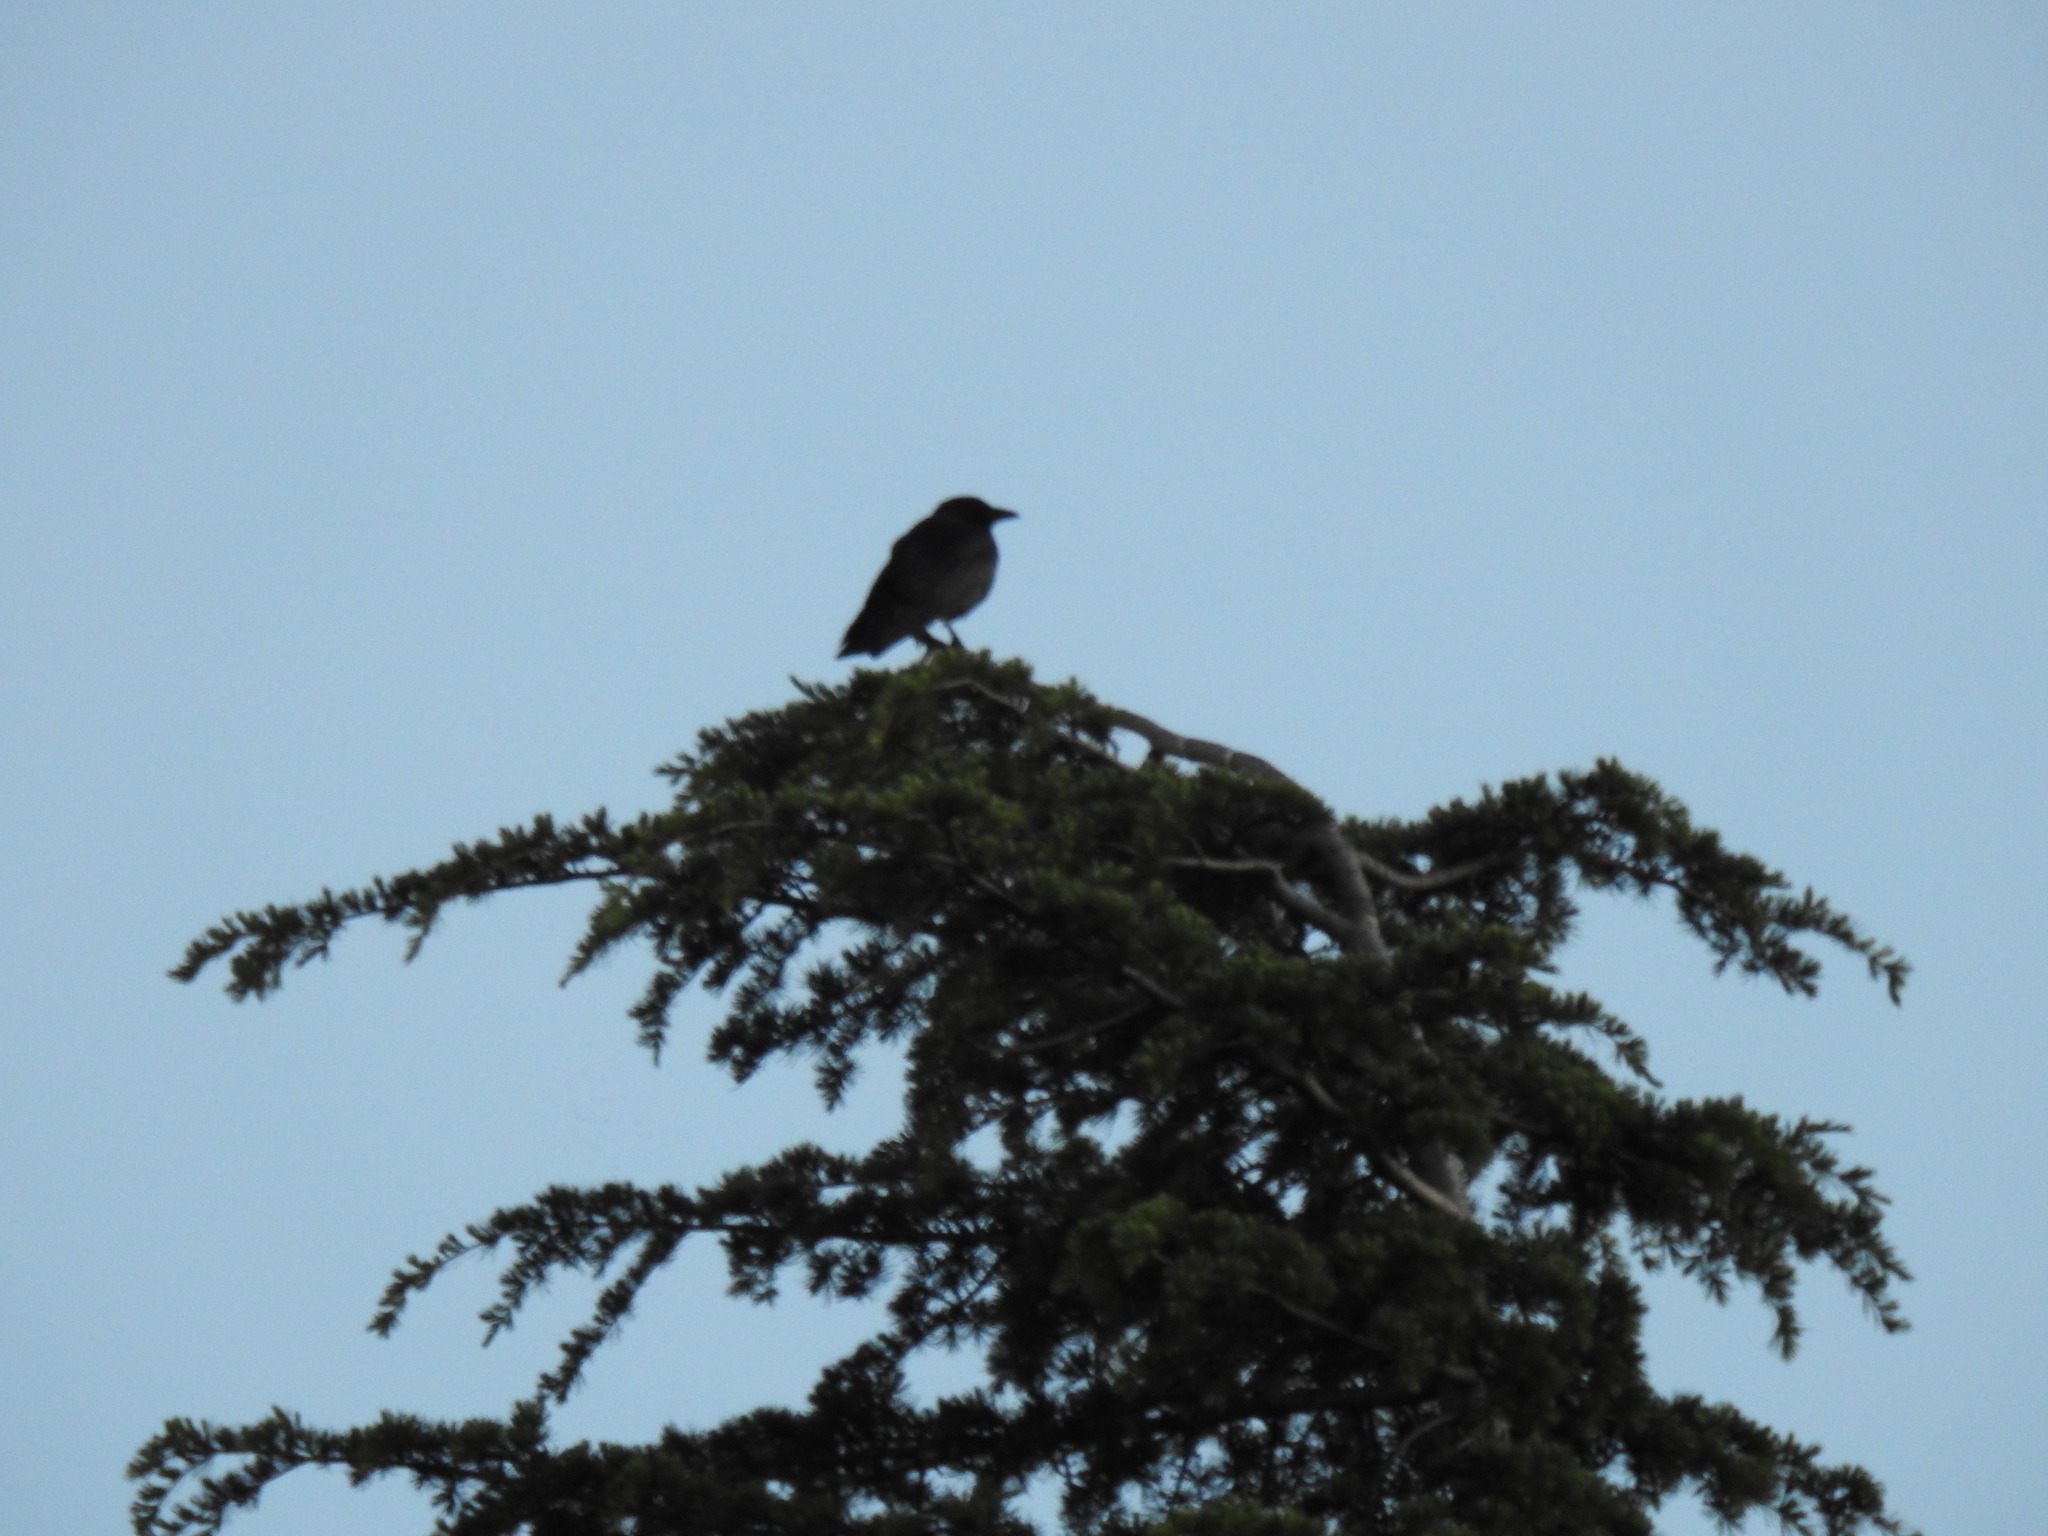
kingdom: Animalia
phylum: Chordata
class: Aves
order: Passeriformes
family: Corvidae
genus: Corvus
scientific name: Corvus brachyrhynchos
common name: American crow
